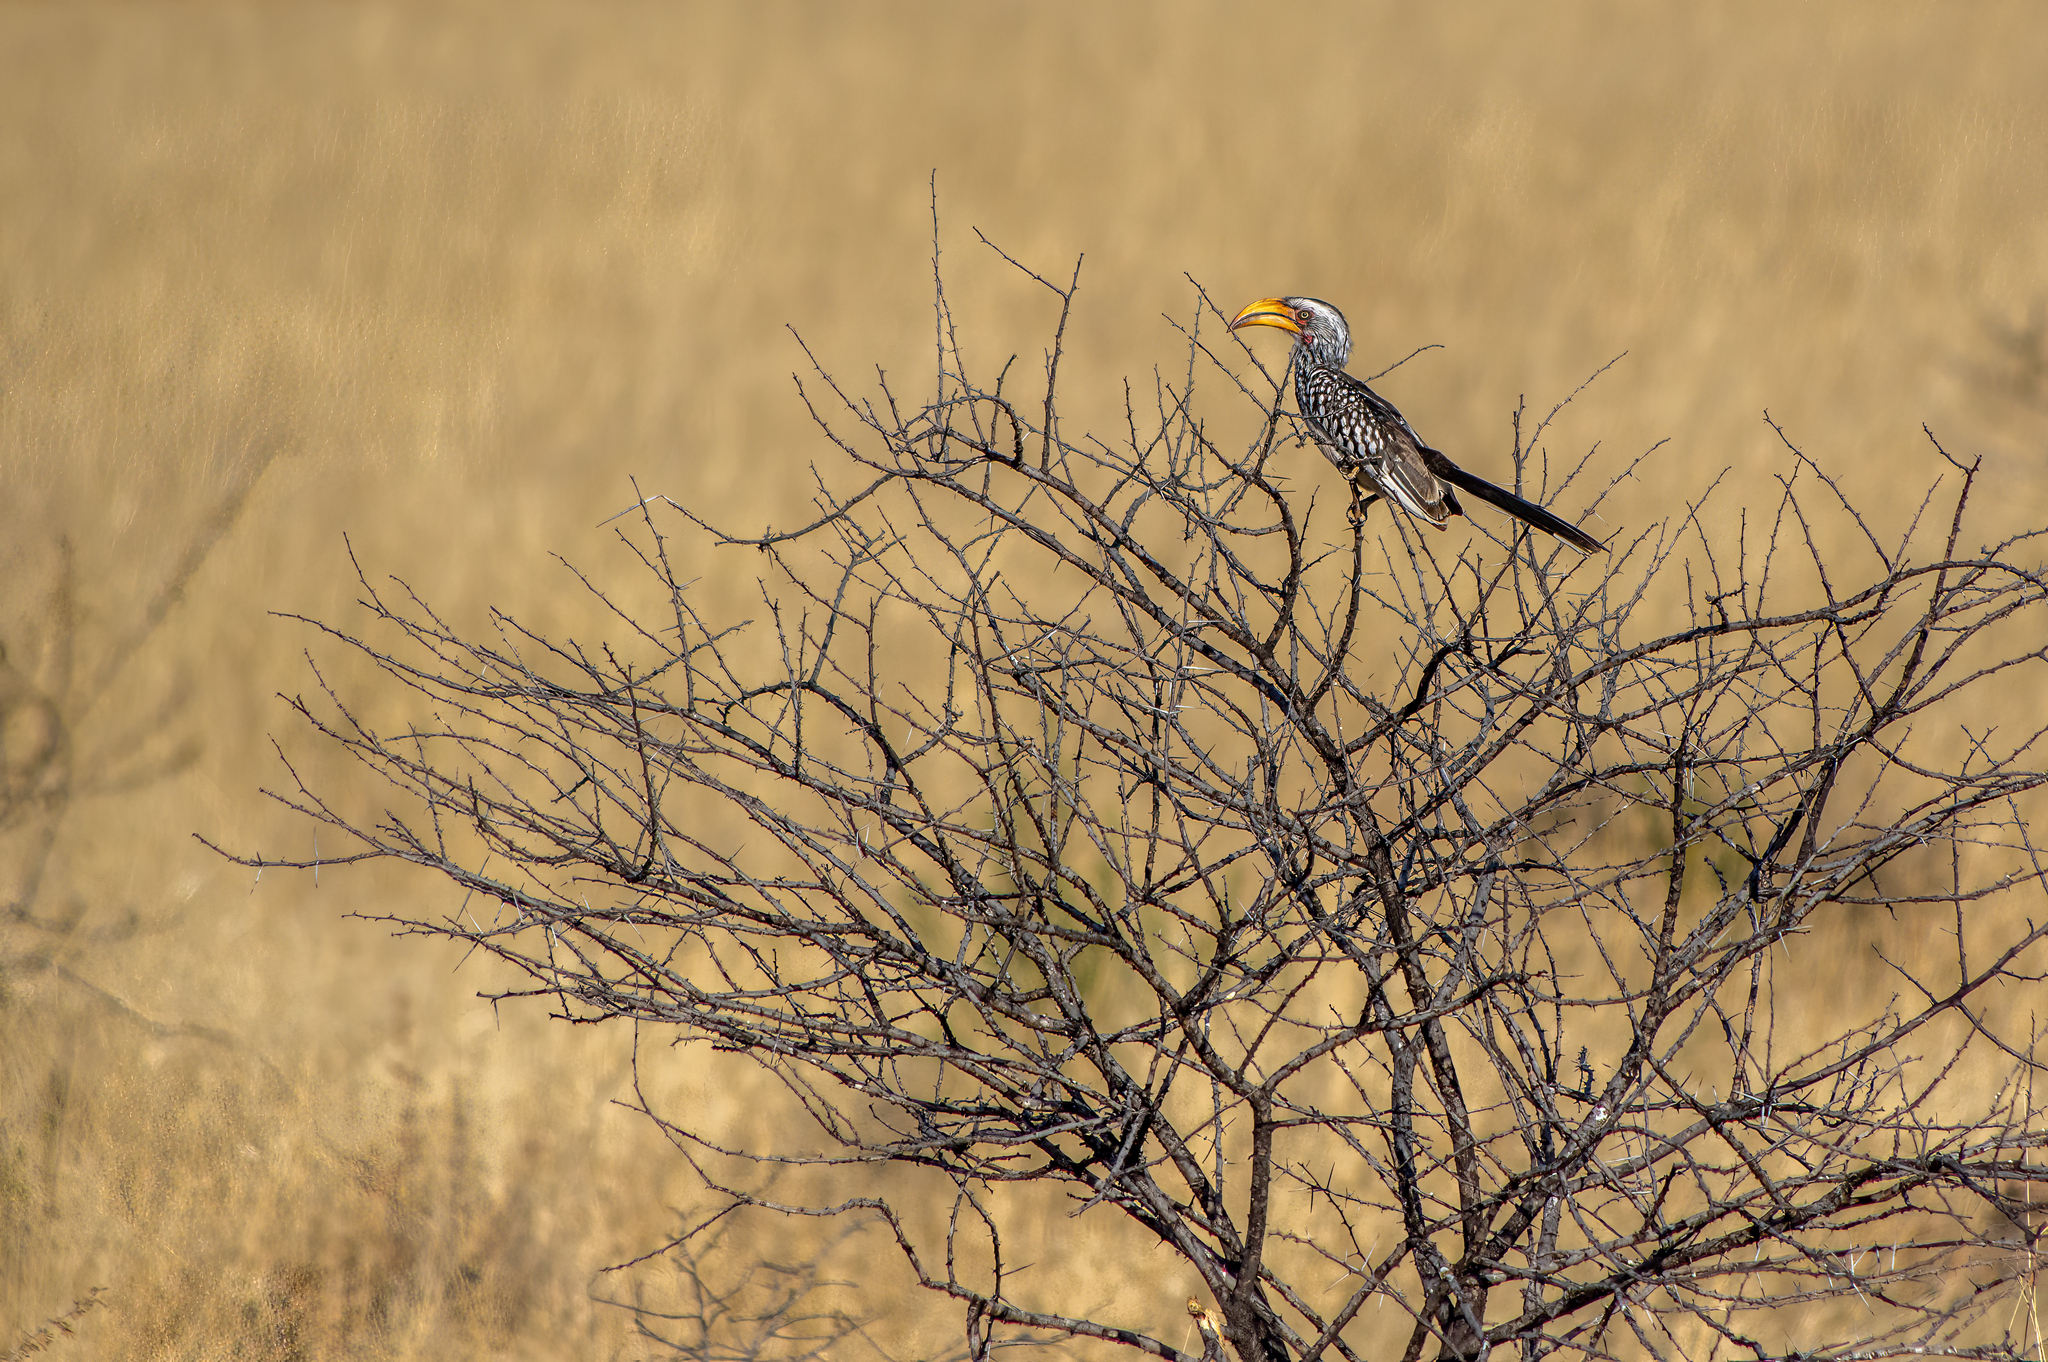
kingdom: Animalia
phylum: Chordata
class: Aves
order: Bucerotiformes
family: Bucerotidae
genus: Tockus
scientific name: Tockus leucomelas
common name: Southern yellow-billed hornbill
